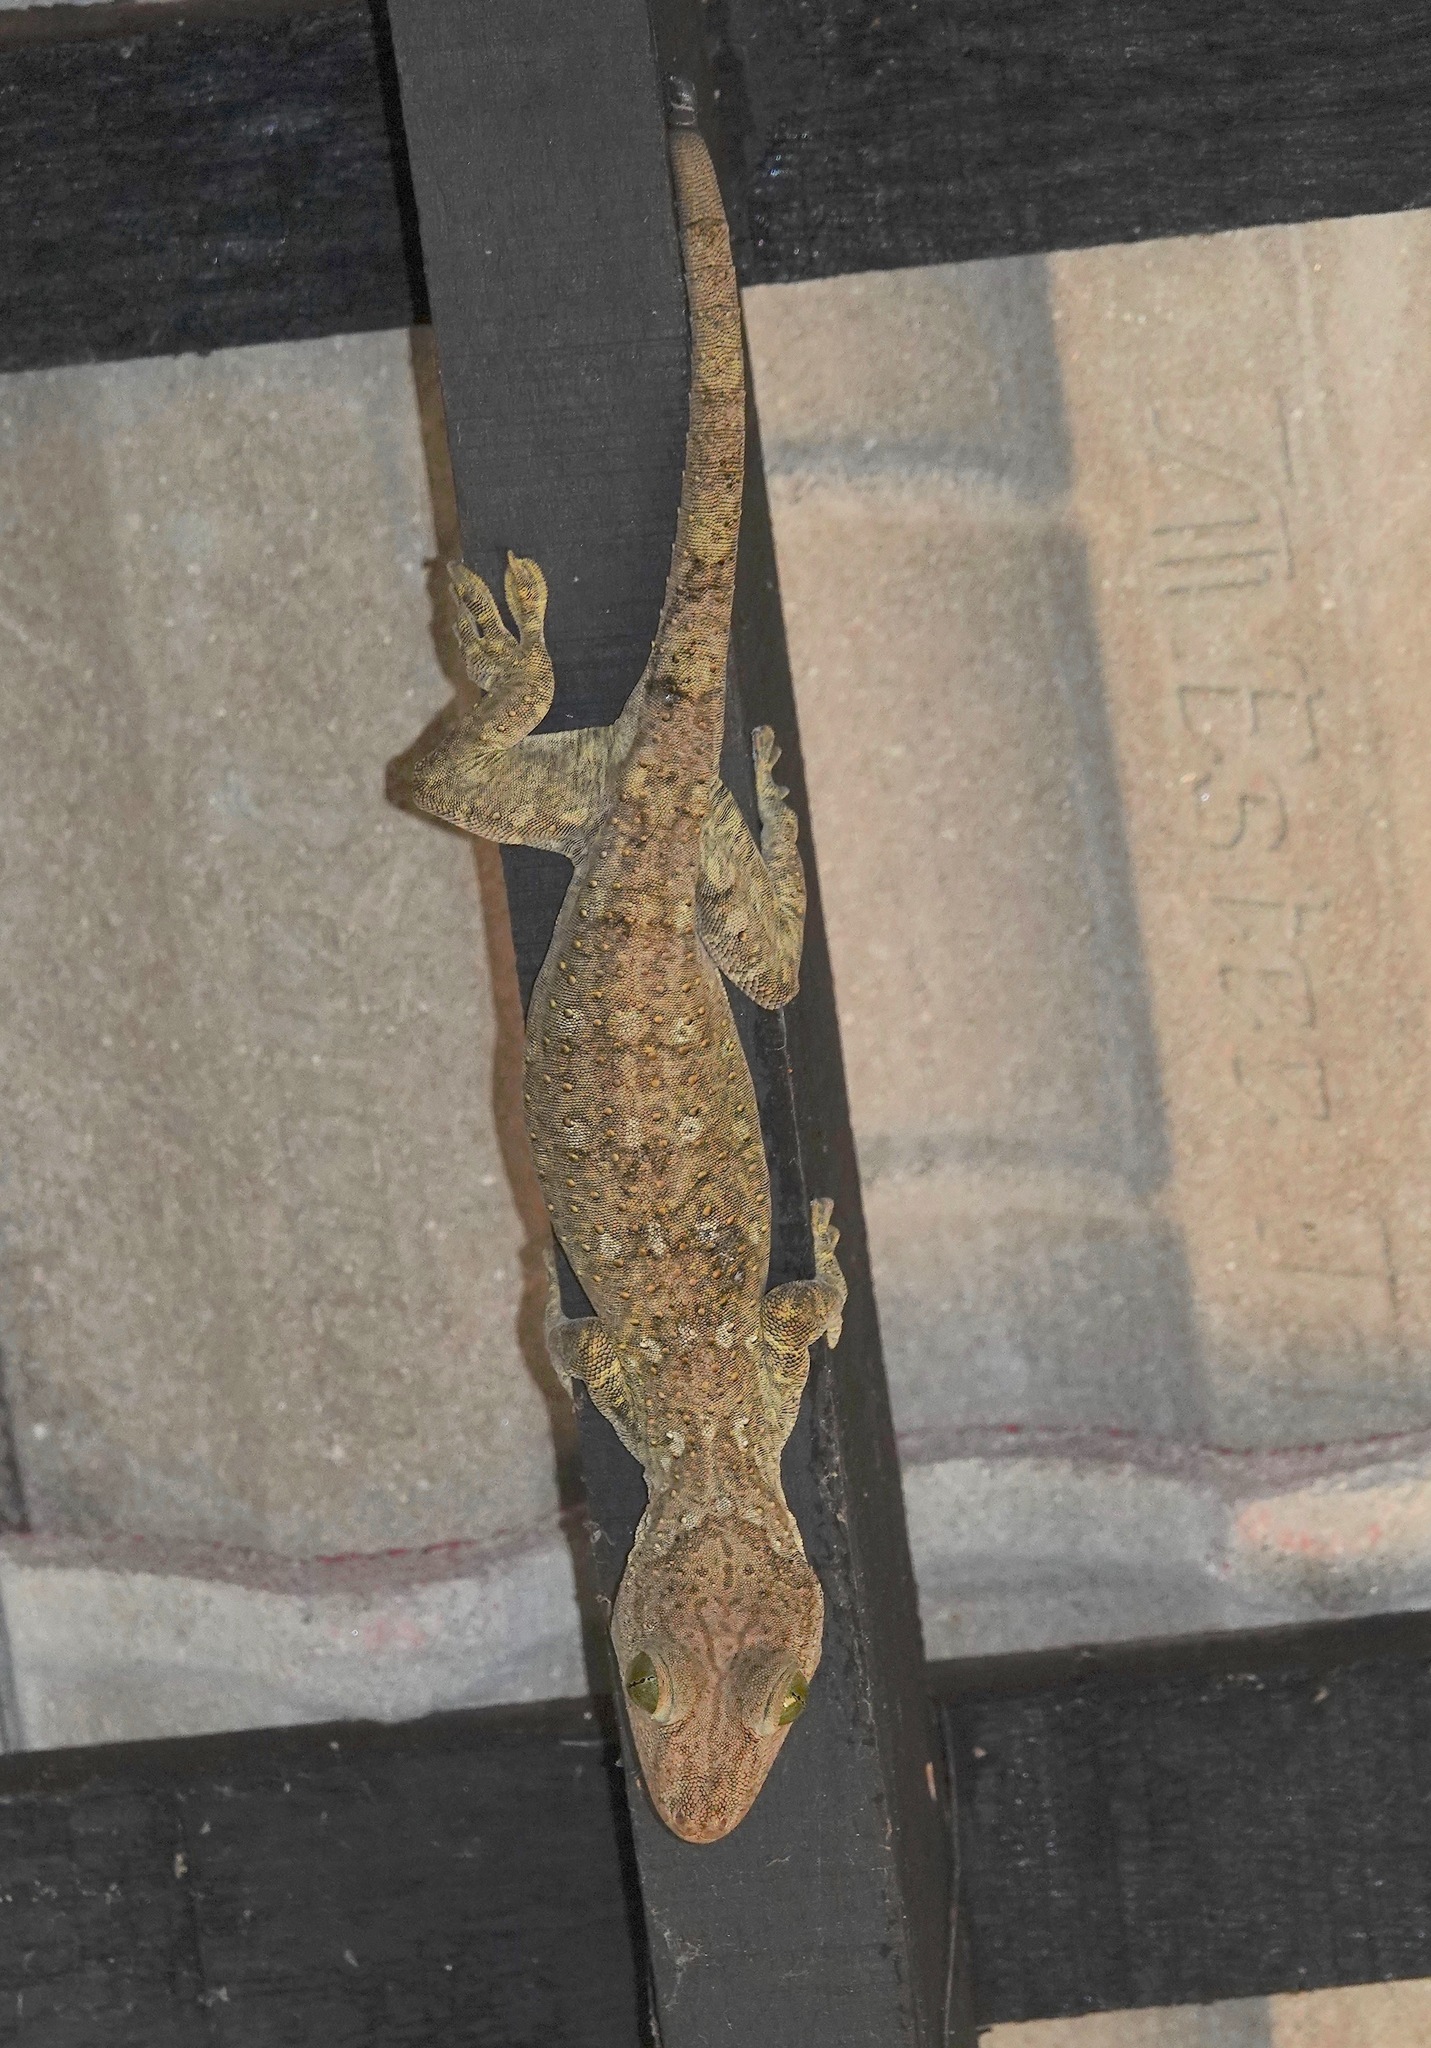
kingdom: Animalia
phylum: Chordata
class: Squamata
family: Gekkonidae
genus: Gekko
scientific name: Gekko smithii
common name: Large forest gecko
